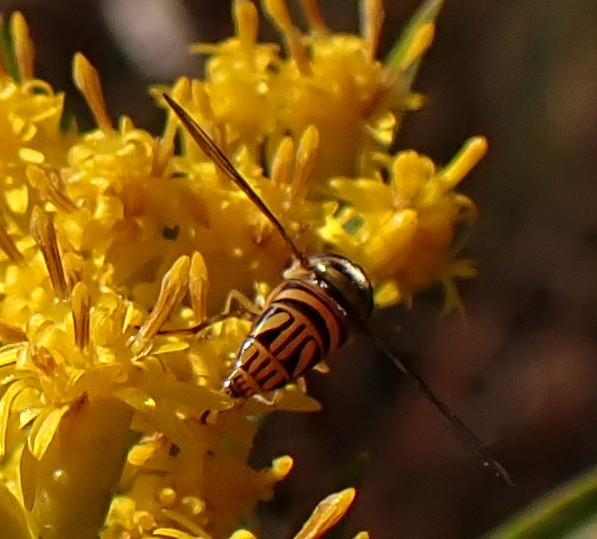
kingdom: Animalia
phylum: Arthropoda
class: Insecta
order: Diptera
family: Syrphidae
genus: Allograpta
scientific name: Allograpta obliqua
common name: Common oblique syrphid
